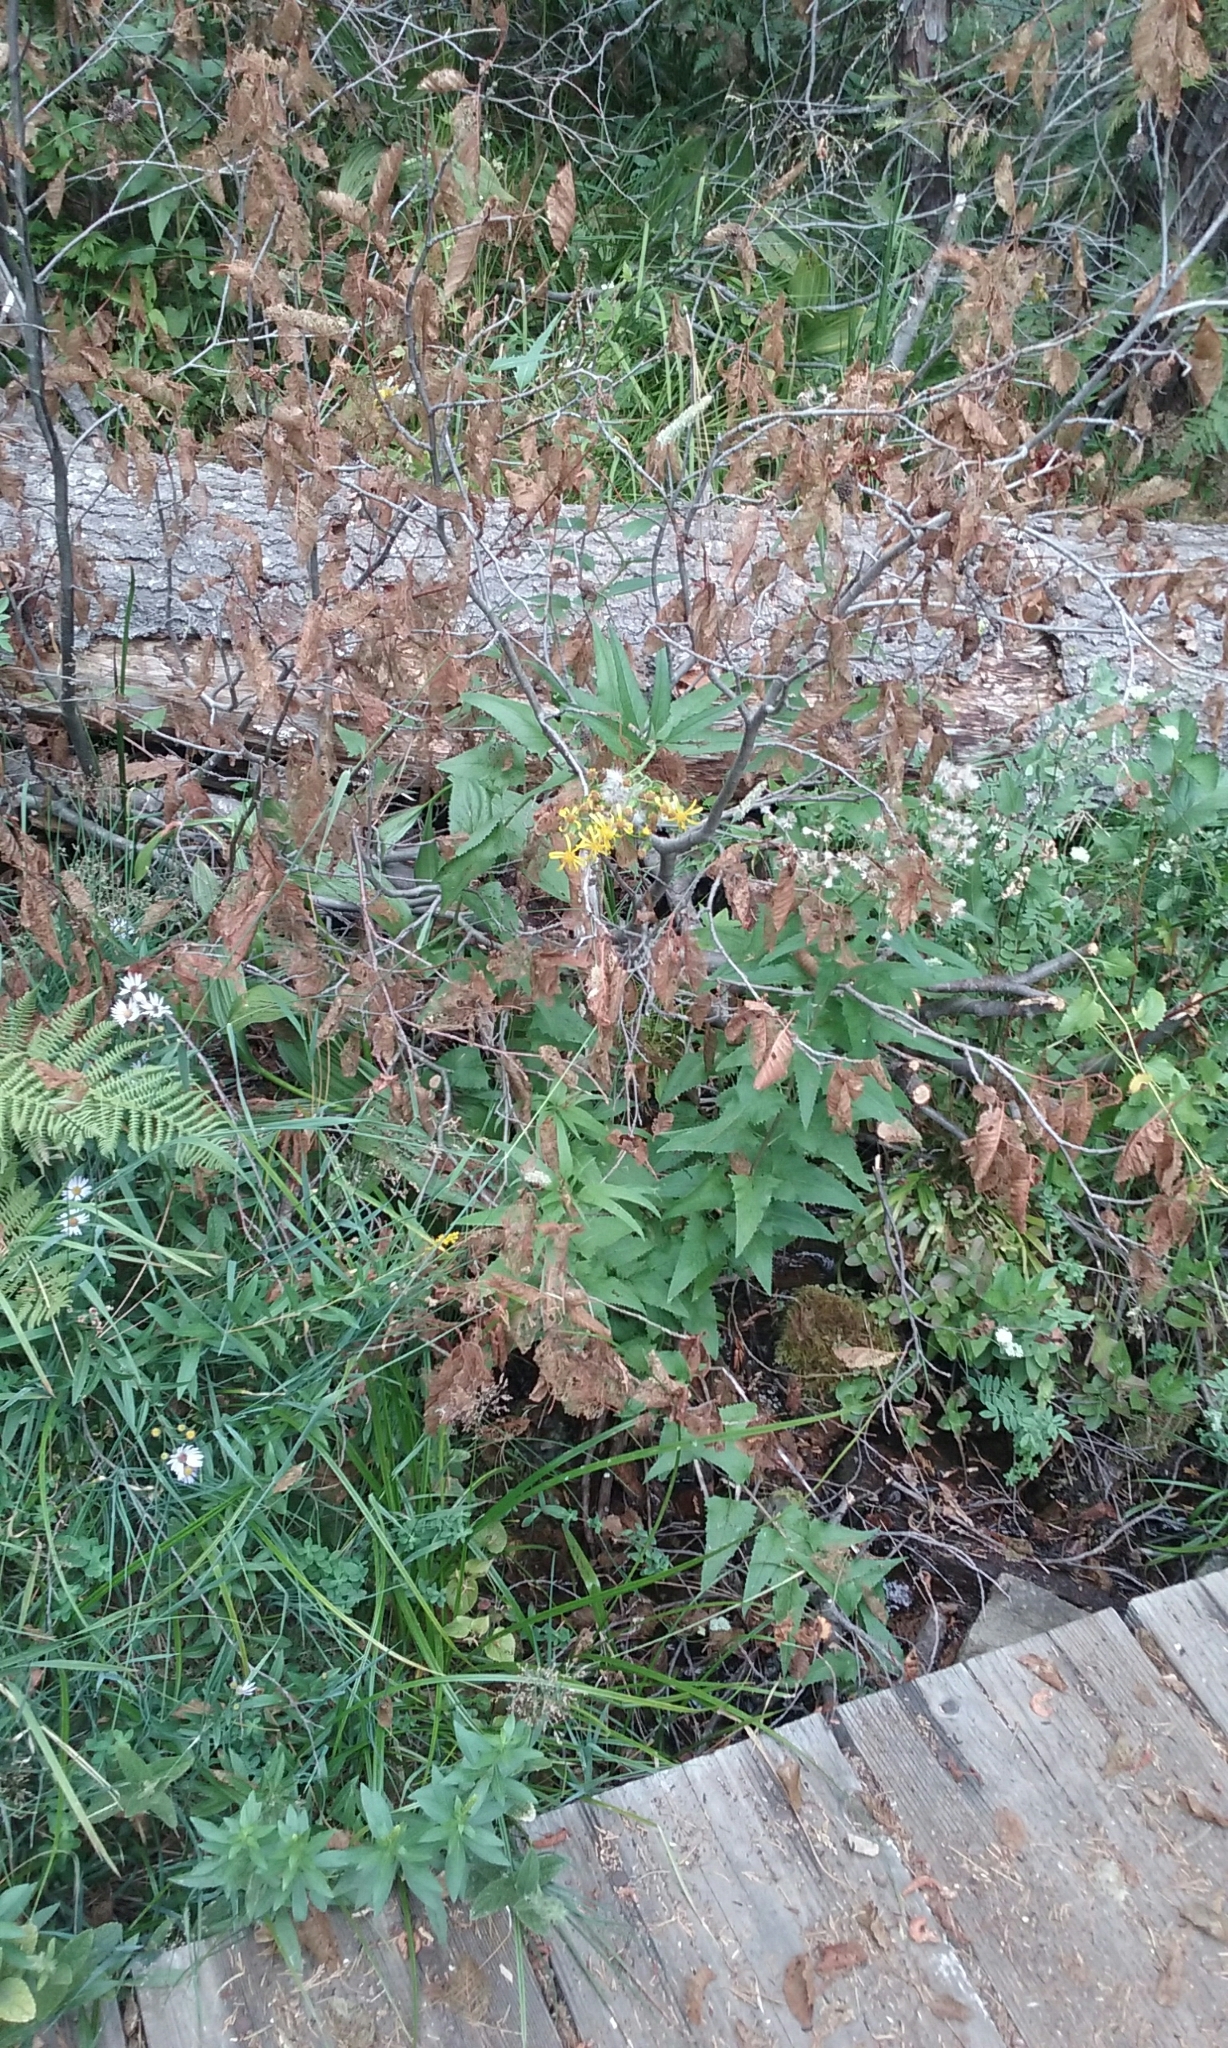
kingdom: Plantae
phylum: Tracheophyta
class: Magnoliopsida
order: Asterales
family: Asteraceae
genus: Senecio
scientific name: Senecio triangularis
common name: Arrowleaf butterweed
